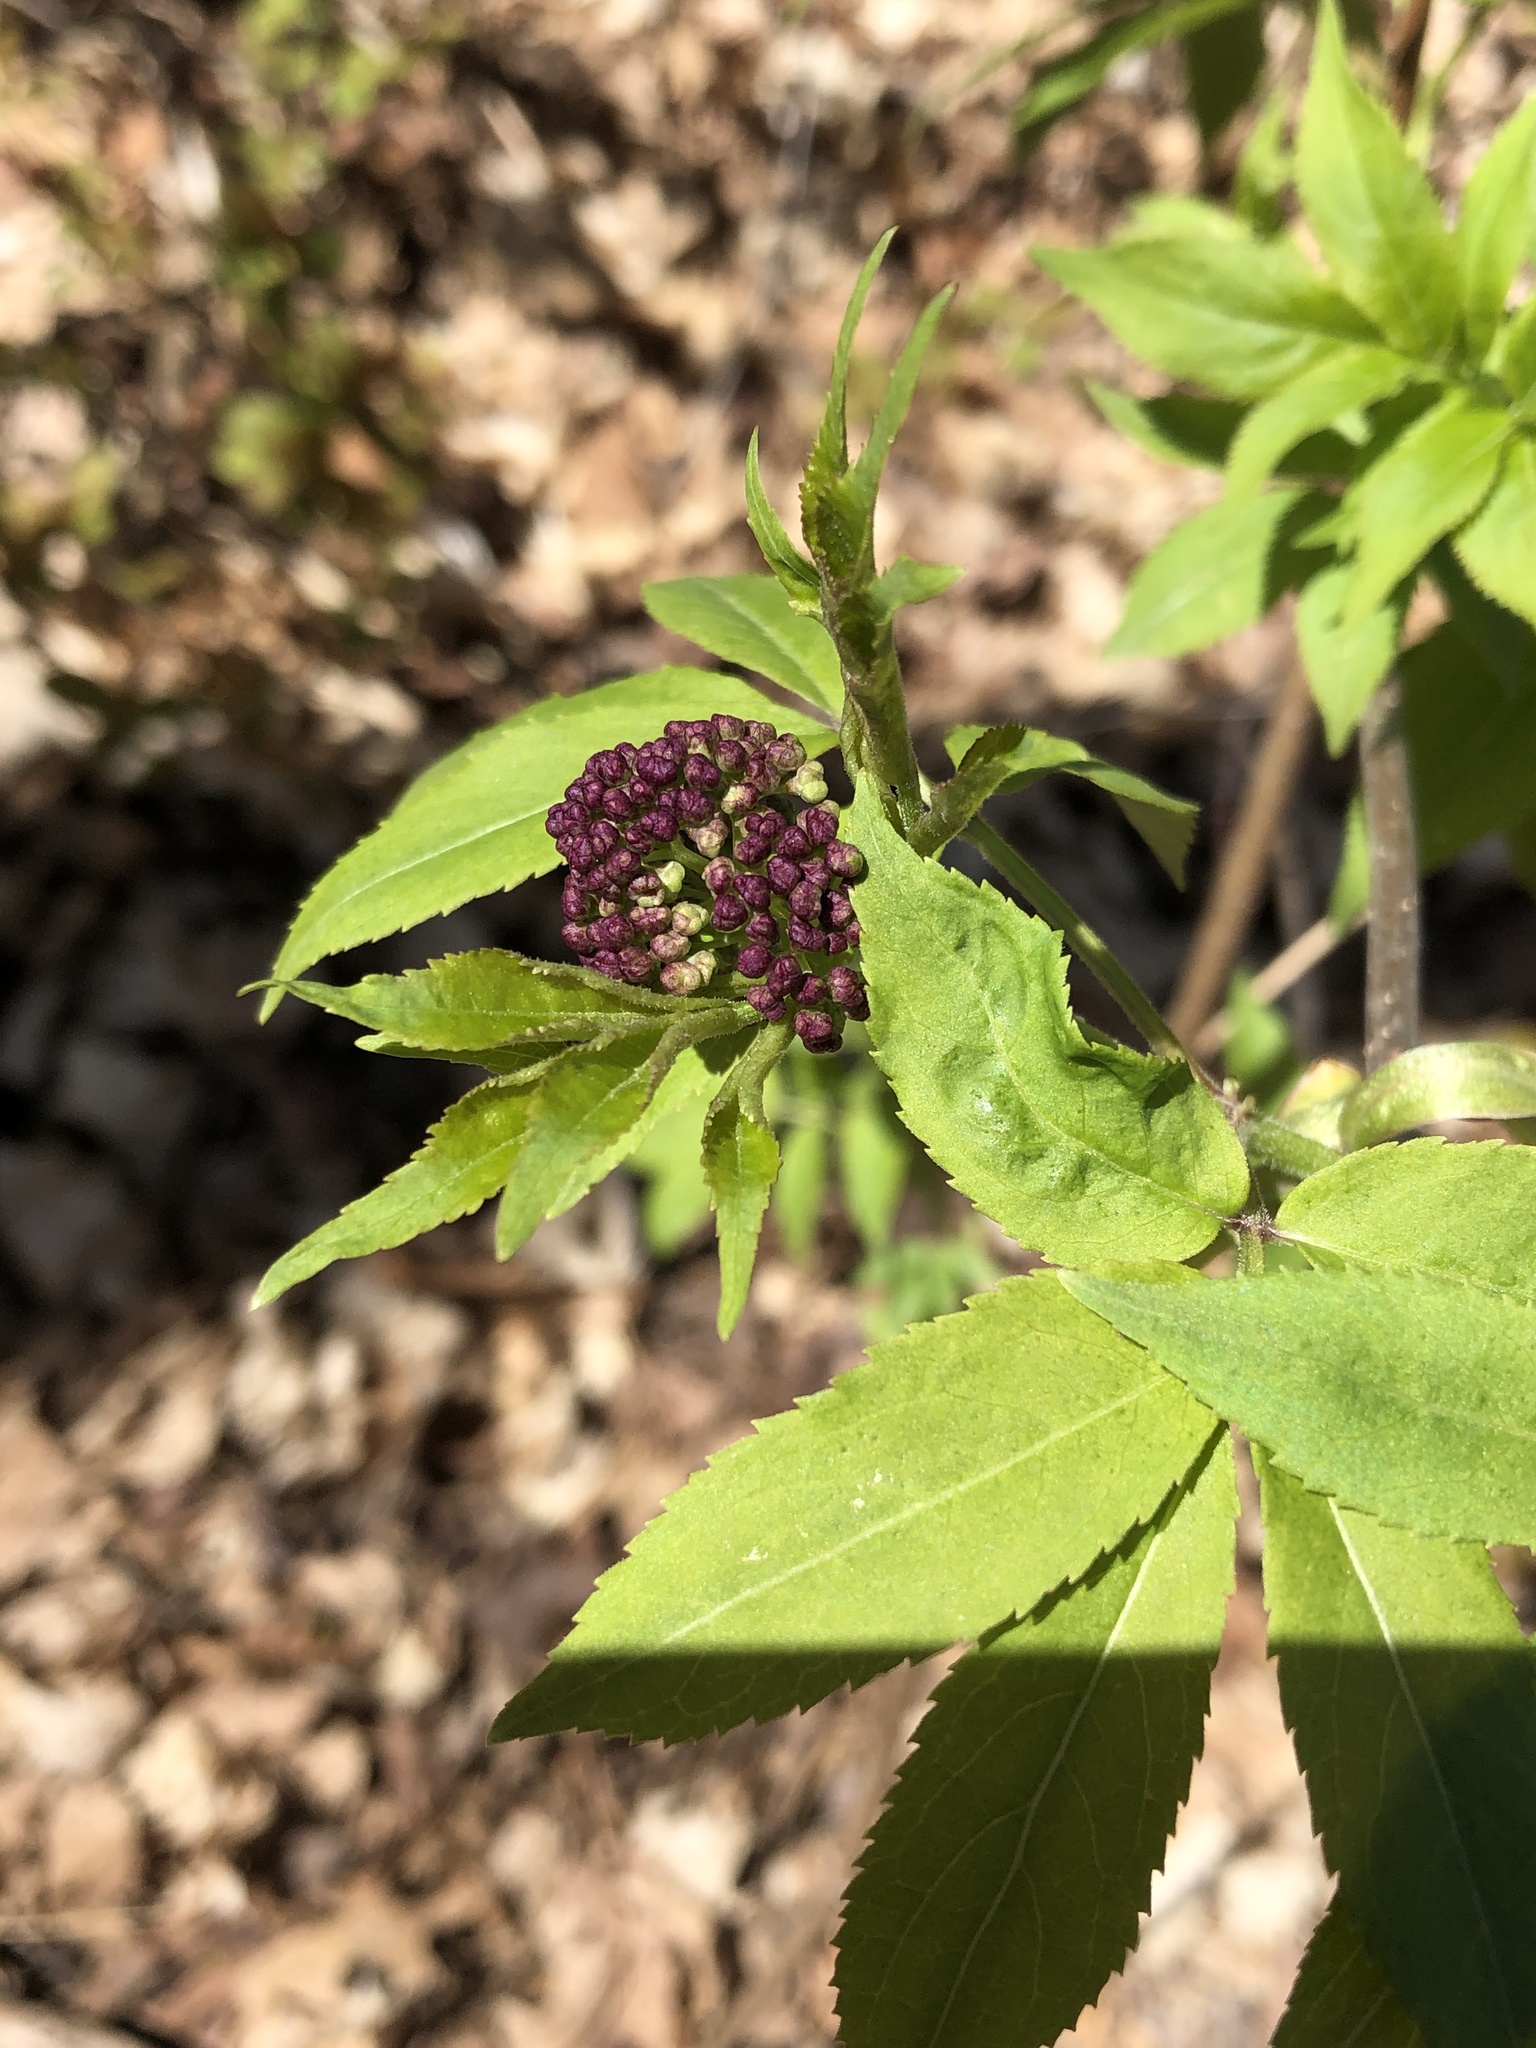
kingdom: Plantae
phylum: Tracheophyta
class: Magnoliopsida
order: Dipsacales
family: Viburnaceae
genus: Sambucus
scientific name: Sambucus racemosa
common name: Red-berried elder
